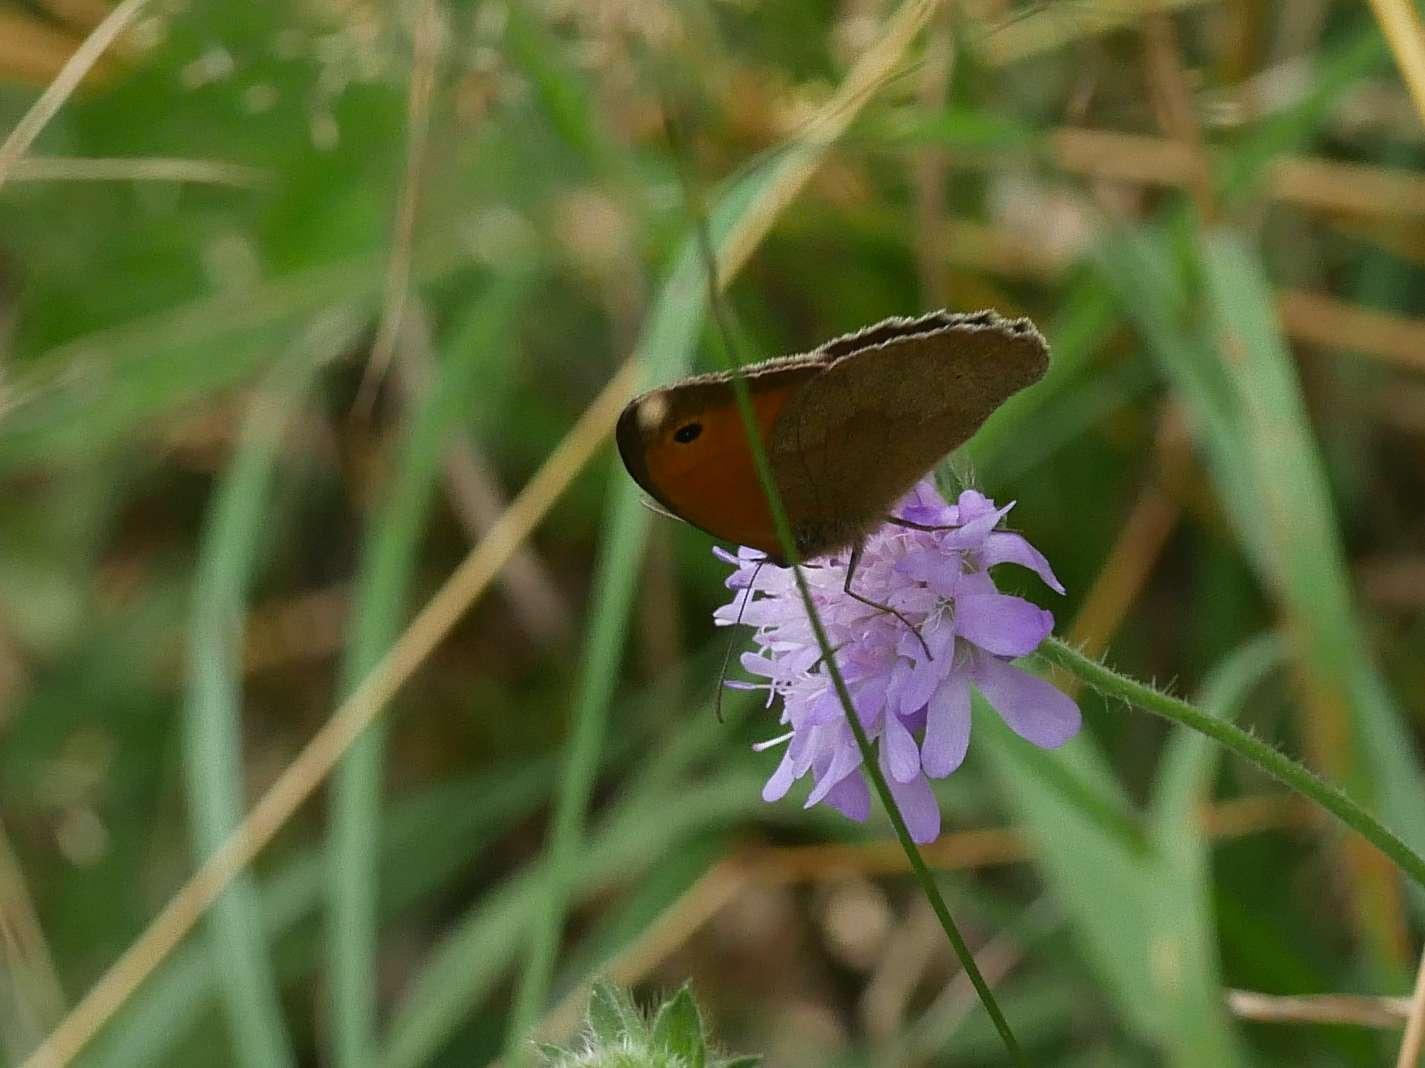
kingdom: Animalia
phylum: Arthropoda
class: Insecta
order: Lepidoptera
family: Nymphalidae
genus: Maniola
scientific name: Maniola jurtina
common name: Meadow brown
